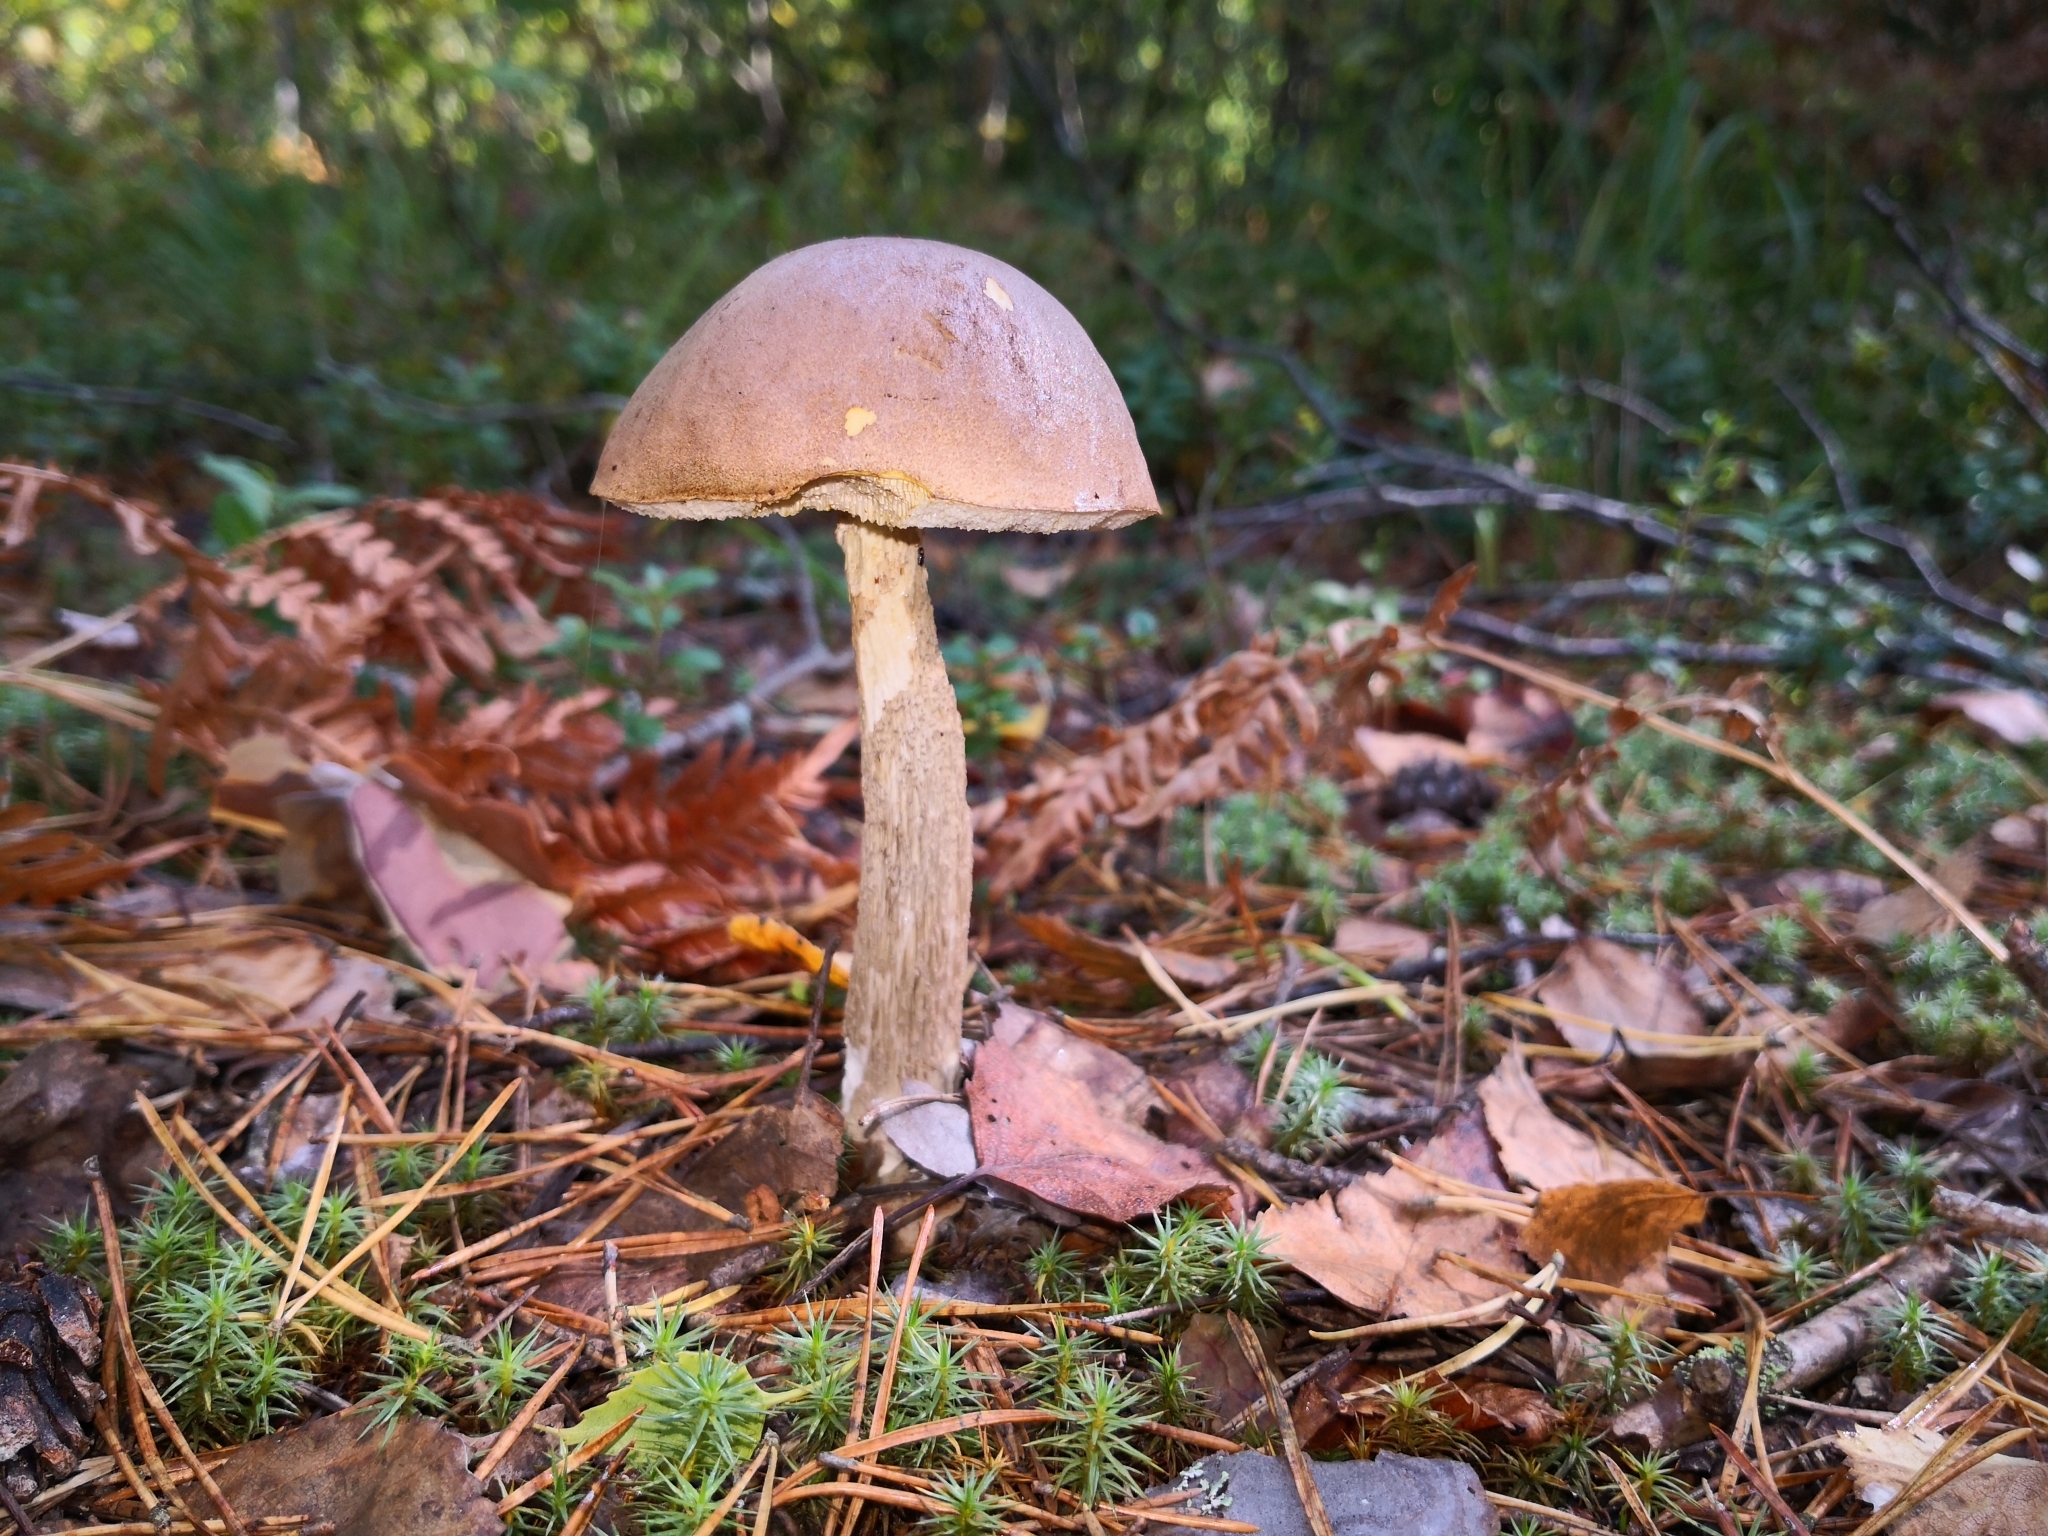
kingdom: Fungi
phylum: Basidiomycota
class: Agaricomycetes
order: Boletales
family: Boletaceae
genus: Leccinum
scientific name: Leccinum scabrum
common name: Blushing bolete
